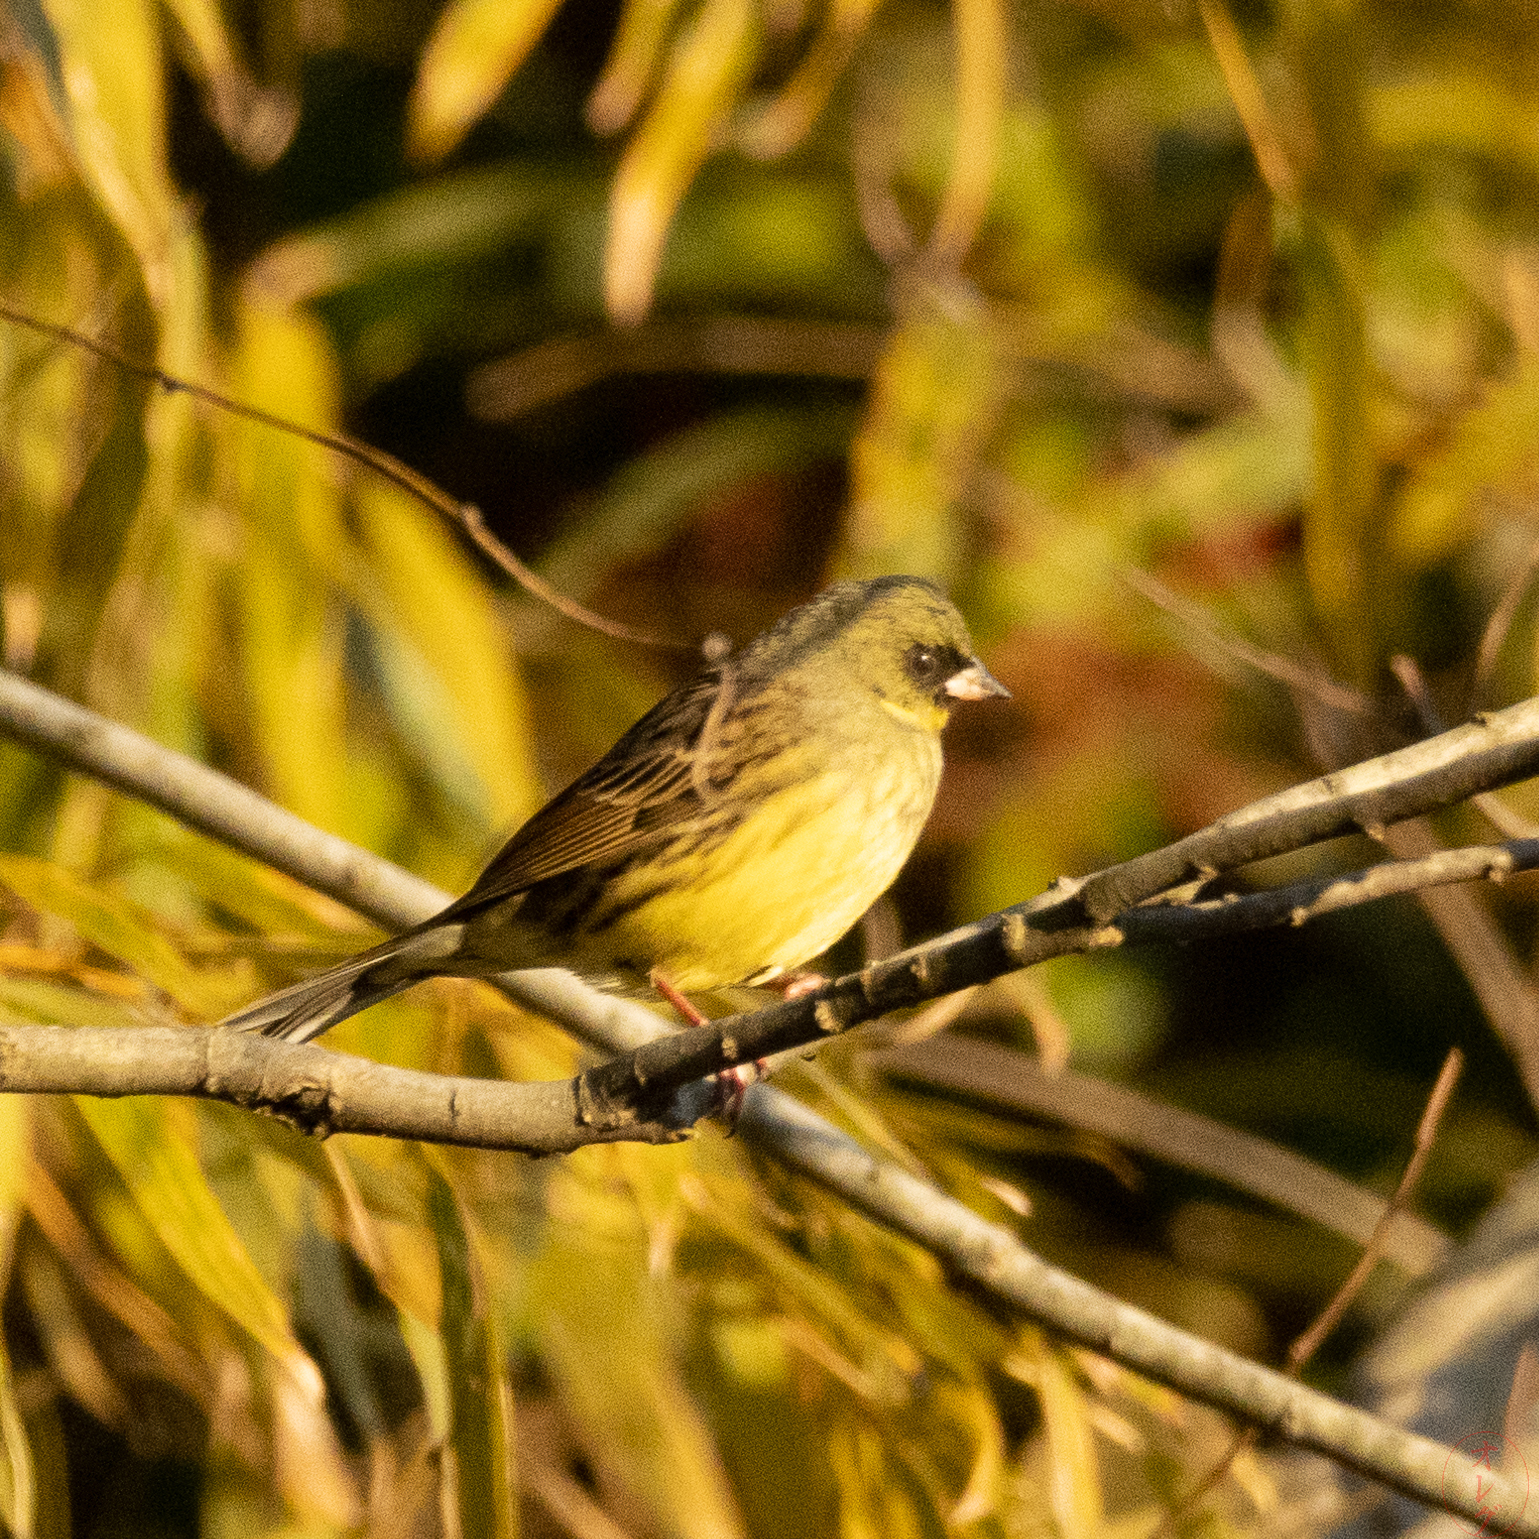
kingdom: Animalia
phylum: Chordata
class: Aves
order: Passeriformes
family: Emberizidae
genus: Emberiza
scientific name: Emberiza personata
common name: Masked bunting
